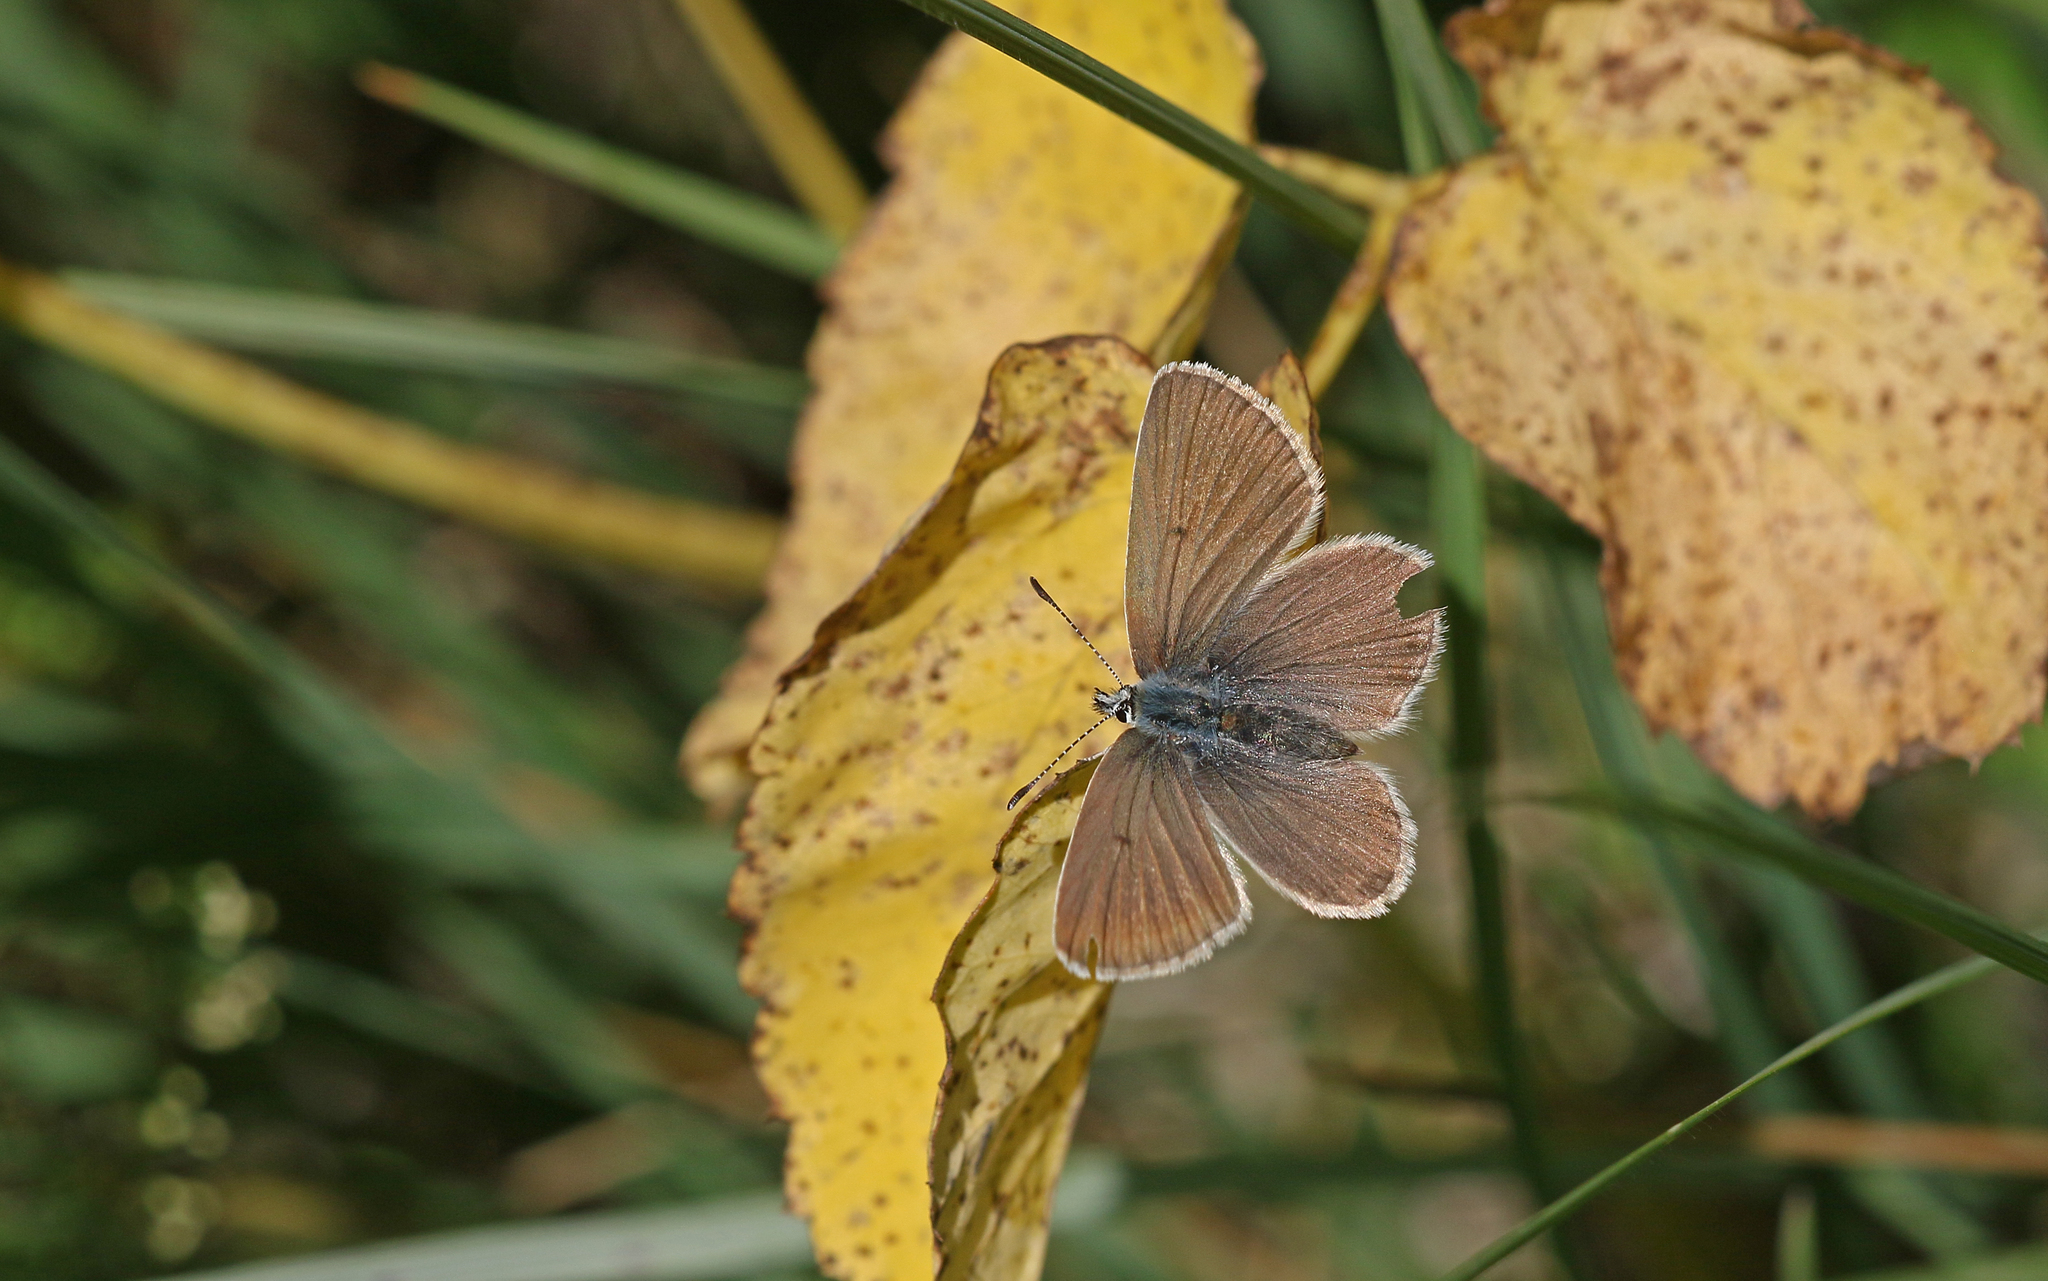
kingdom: Animalia
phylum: Arthropoda
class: Insecta
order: Lepidoptera
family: Lycaenidae
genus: Pseudoaricia
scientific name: Pseudoaricia nicias
